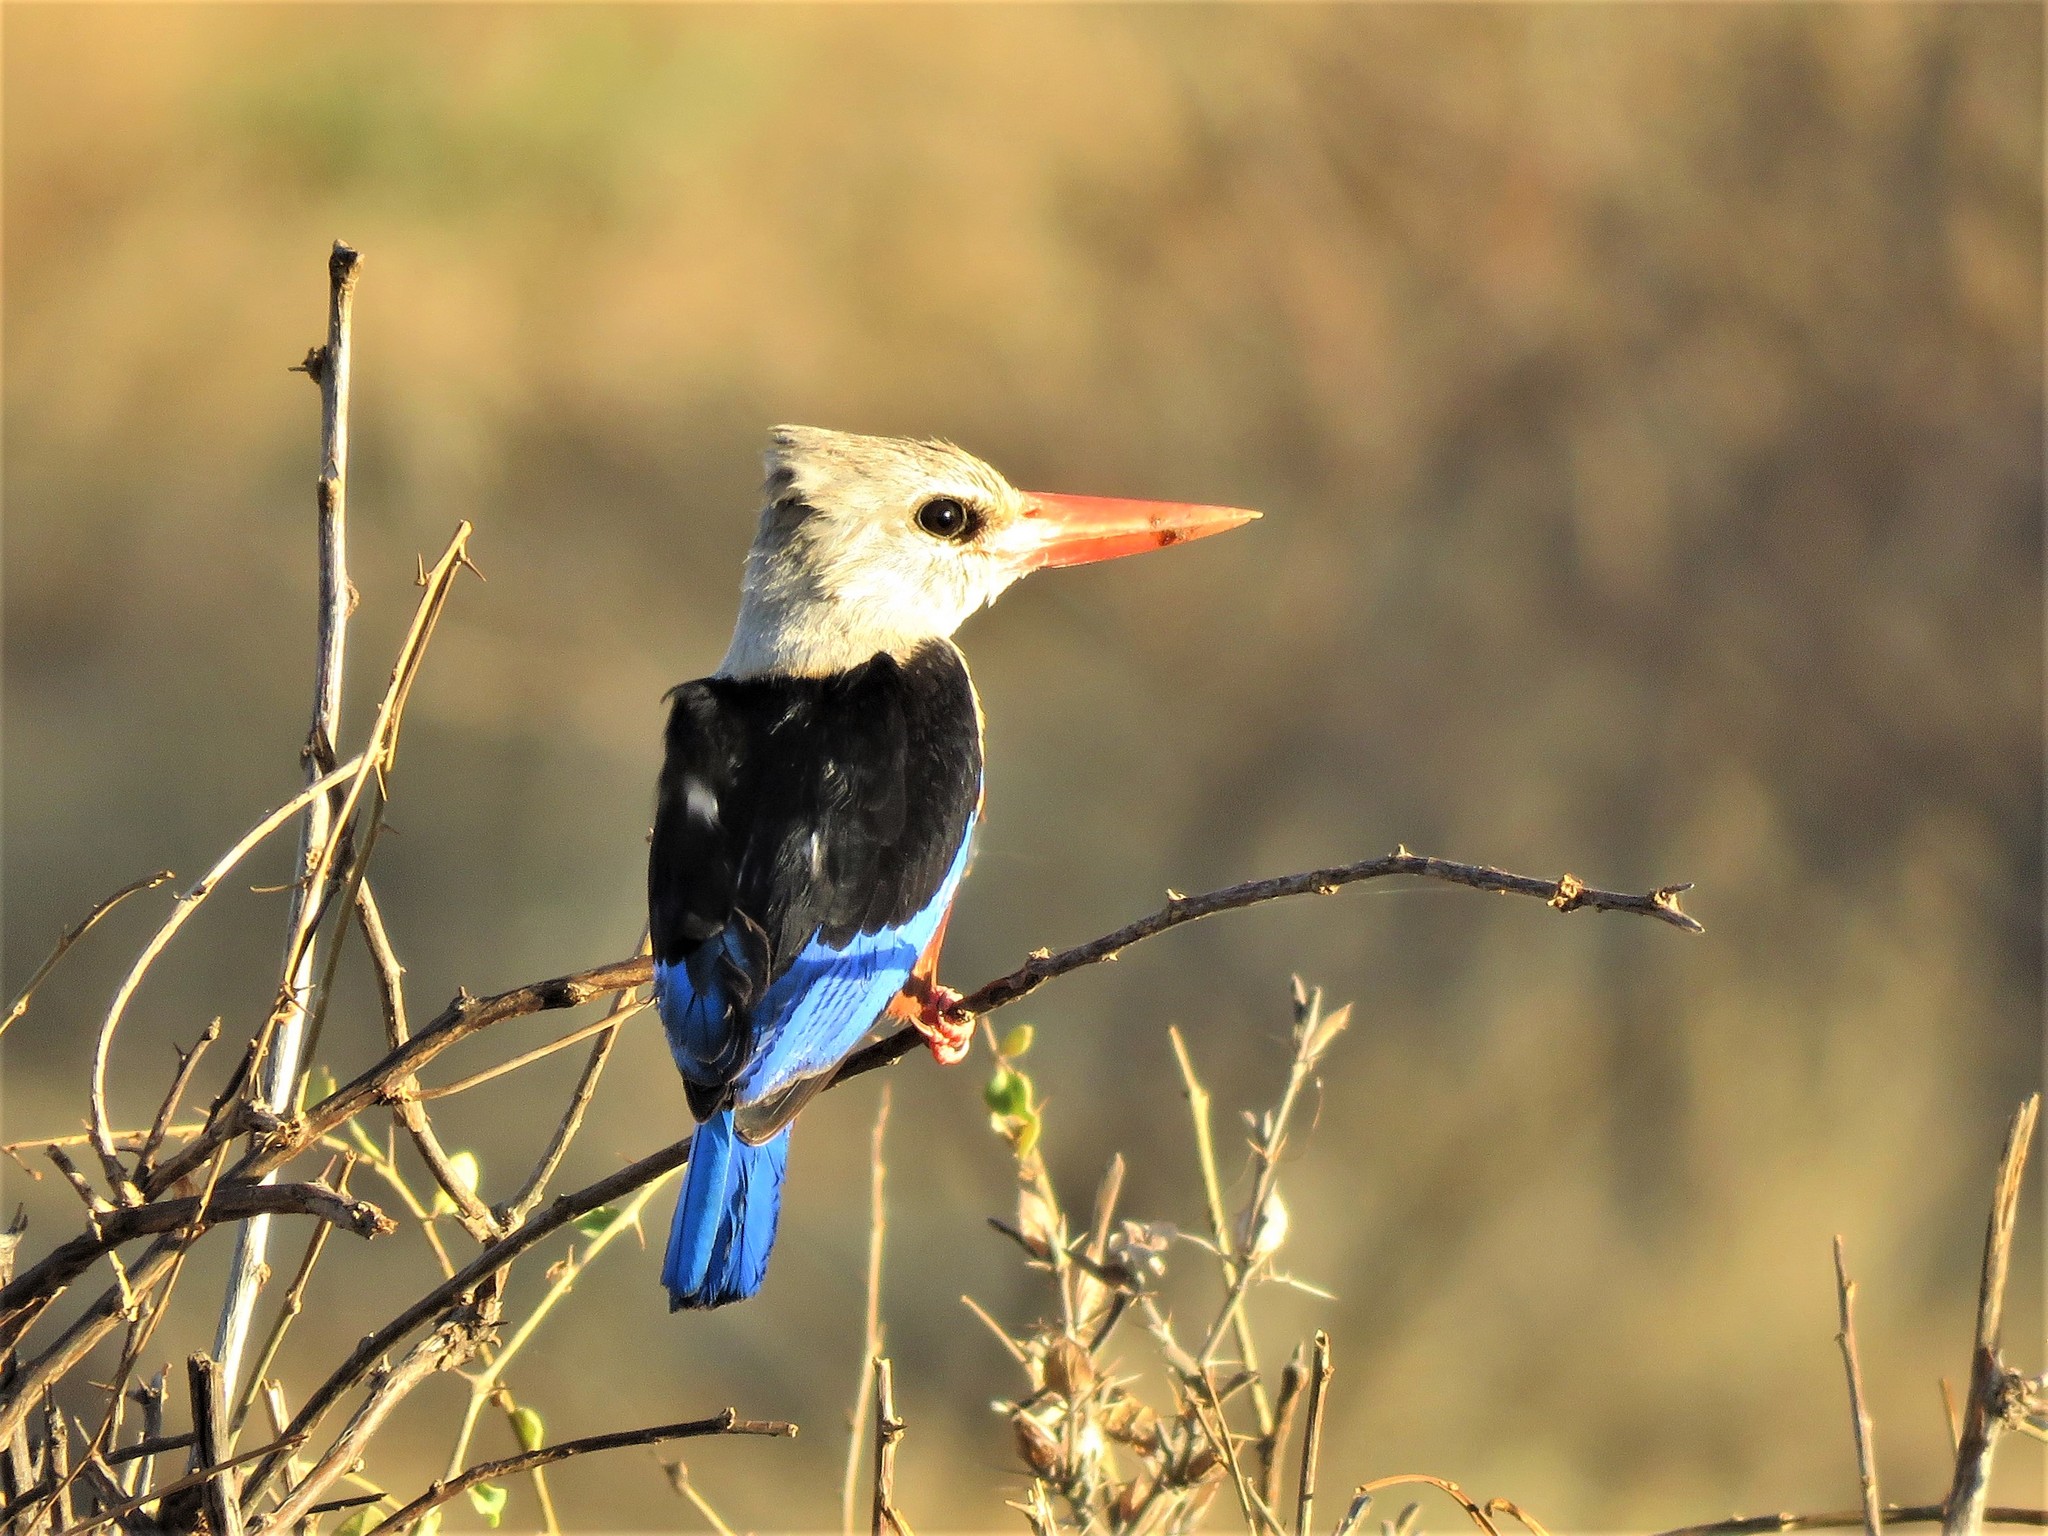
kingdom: Animalia
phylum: Chordata
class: Aves
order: Coraciiformes
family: Alcedinidae
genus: Halcyon
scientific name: Halcyon leucocephala
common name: Grey-headed kingfisher
